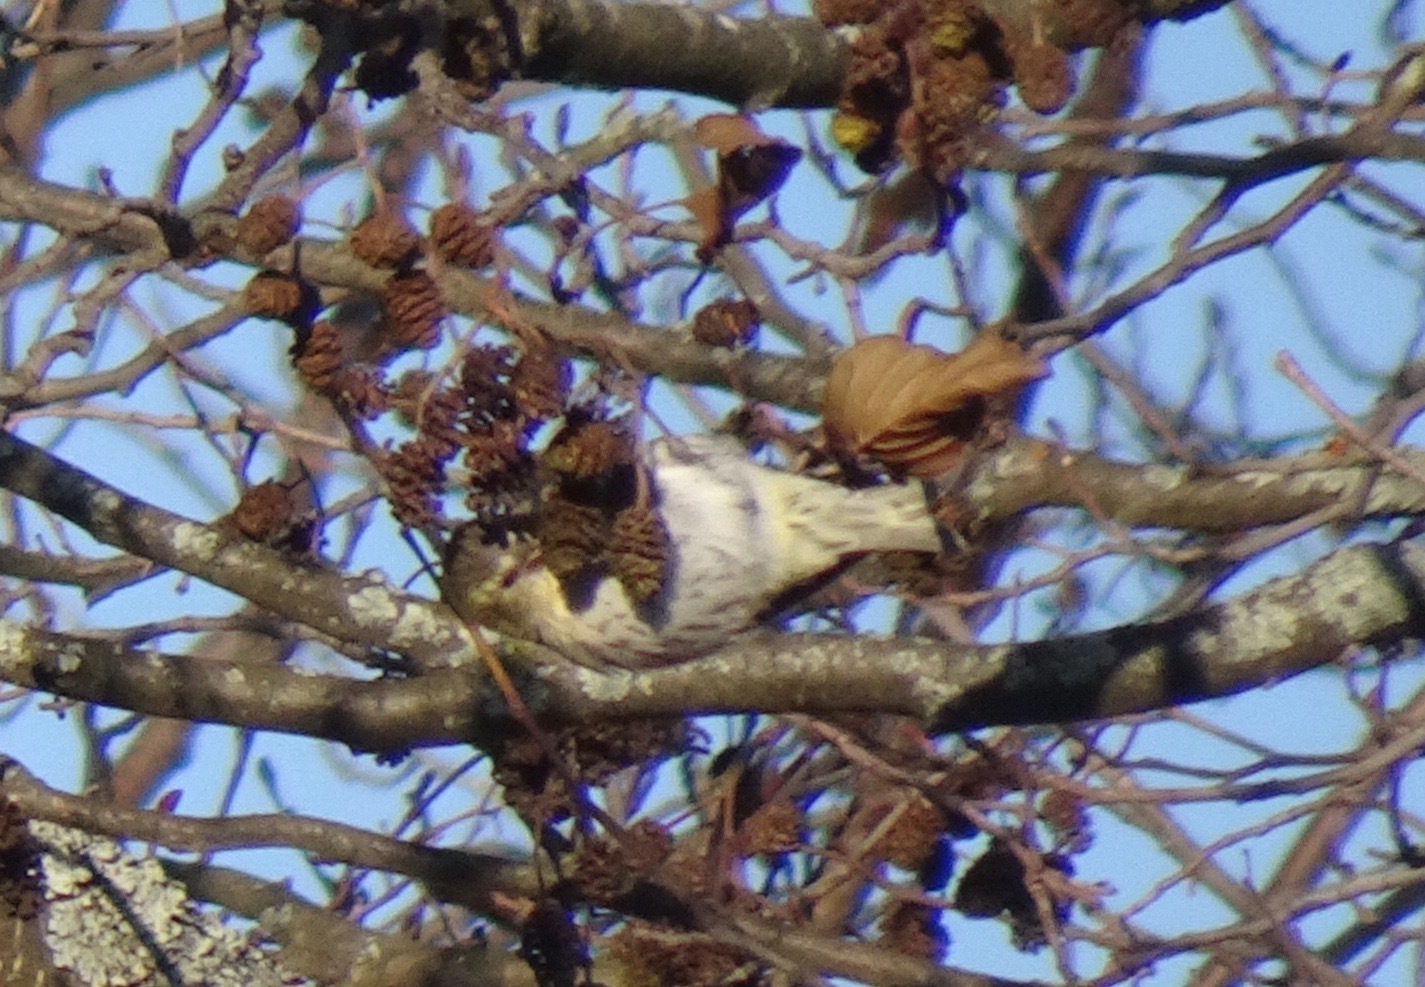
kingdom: Animalia
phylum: Chordata
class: Aves
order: Passeriformes
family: Fringillidae
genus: Spinus
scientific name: Spinus spinus
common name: Eurasian siskin
